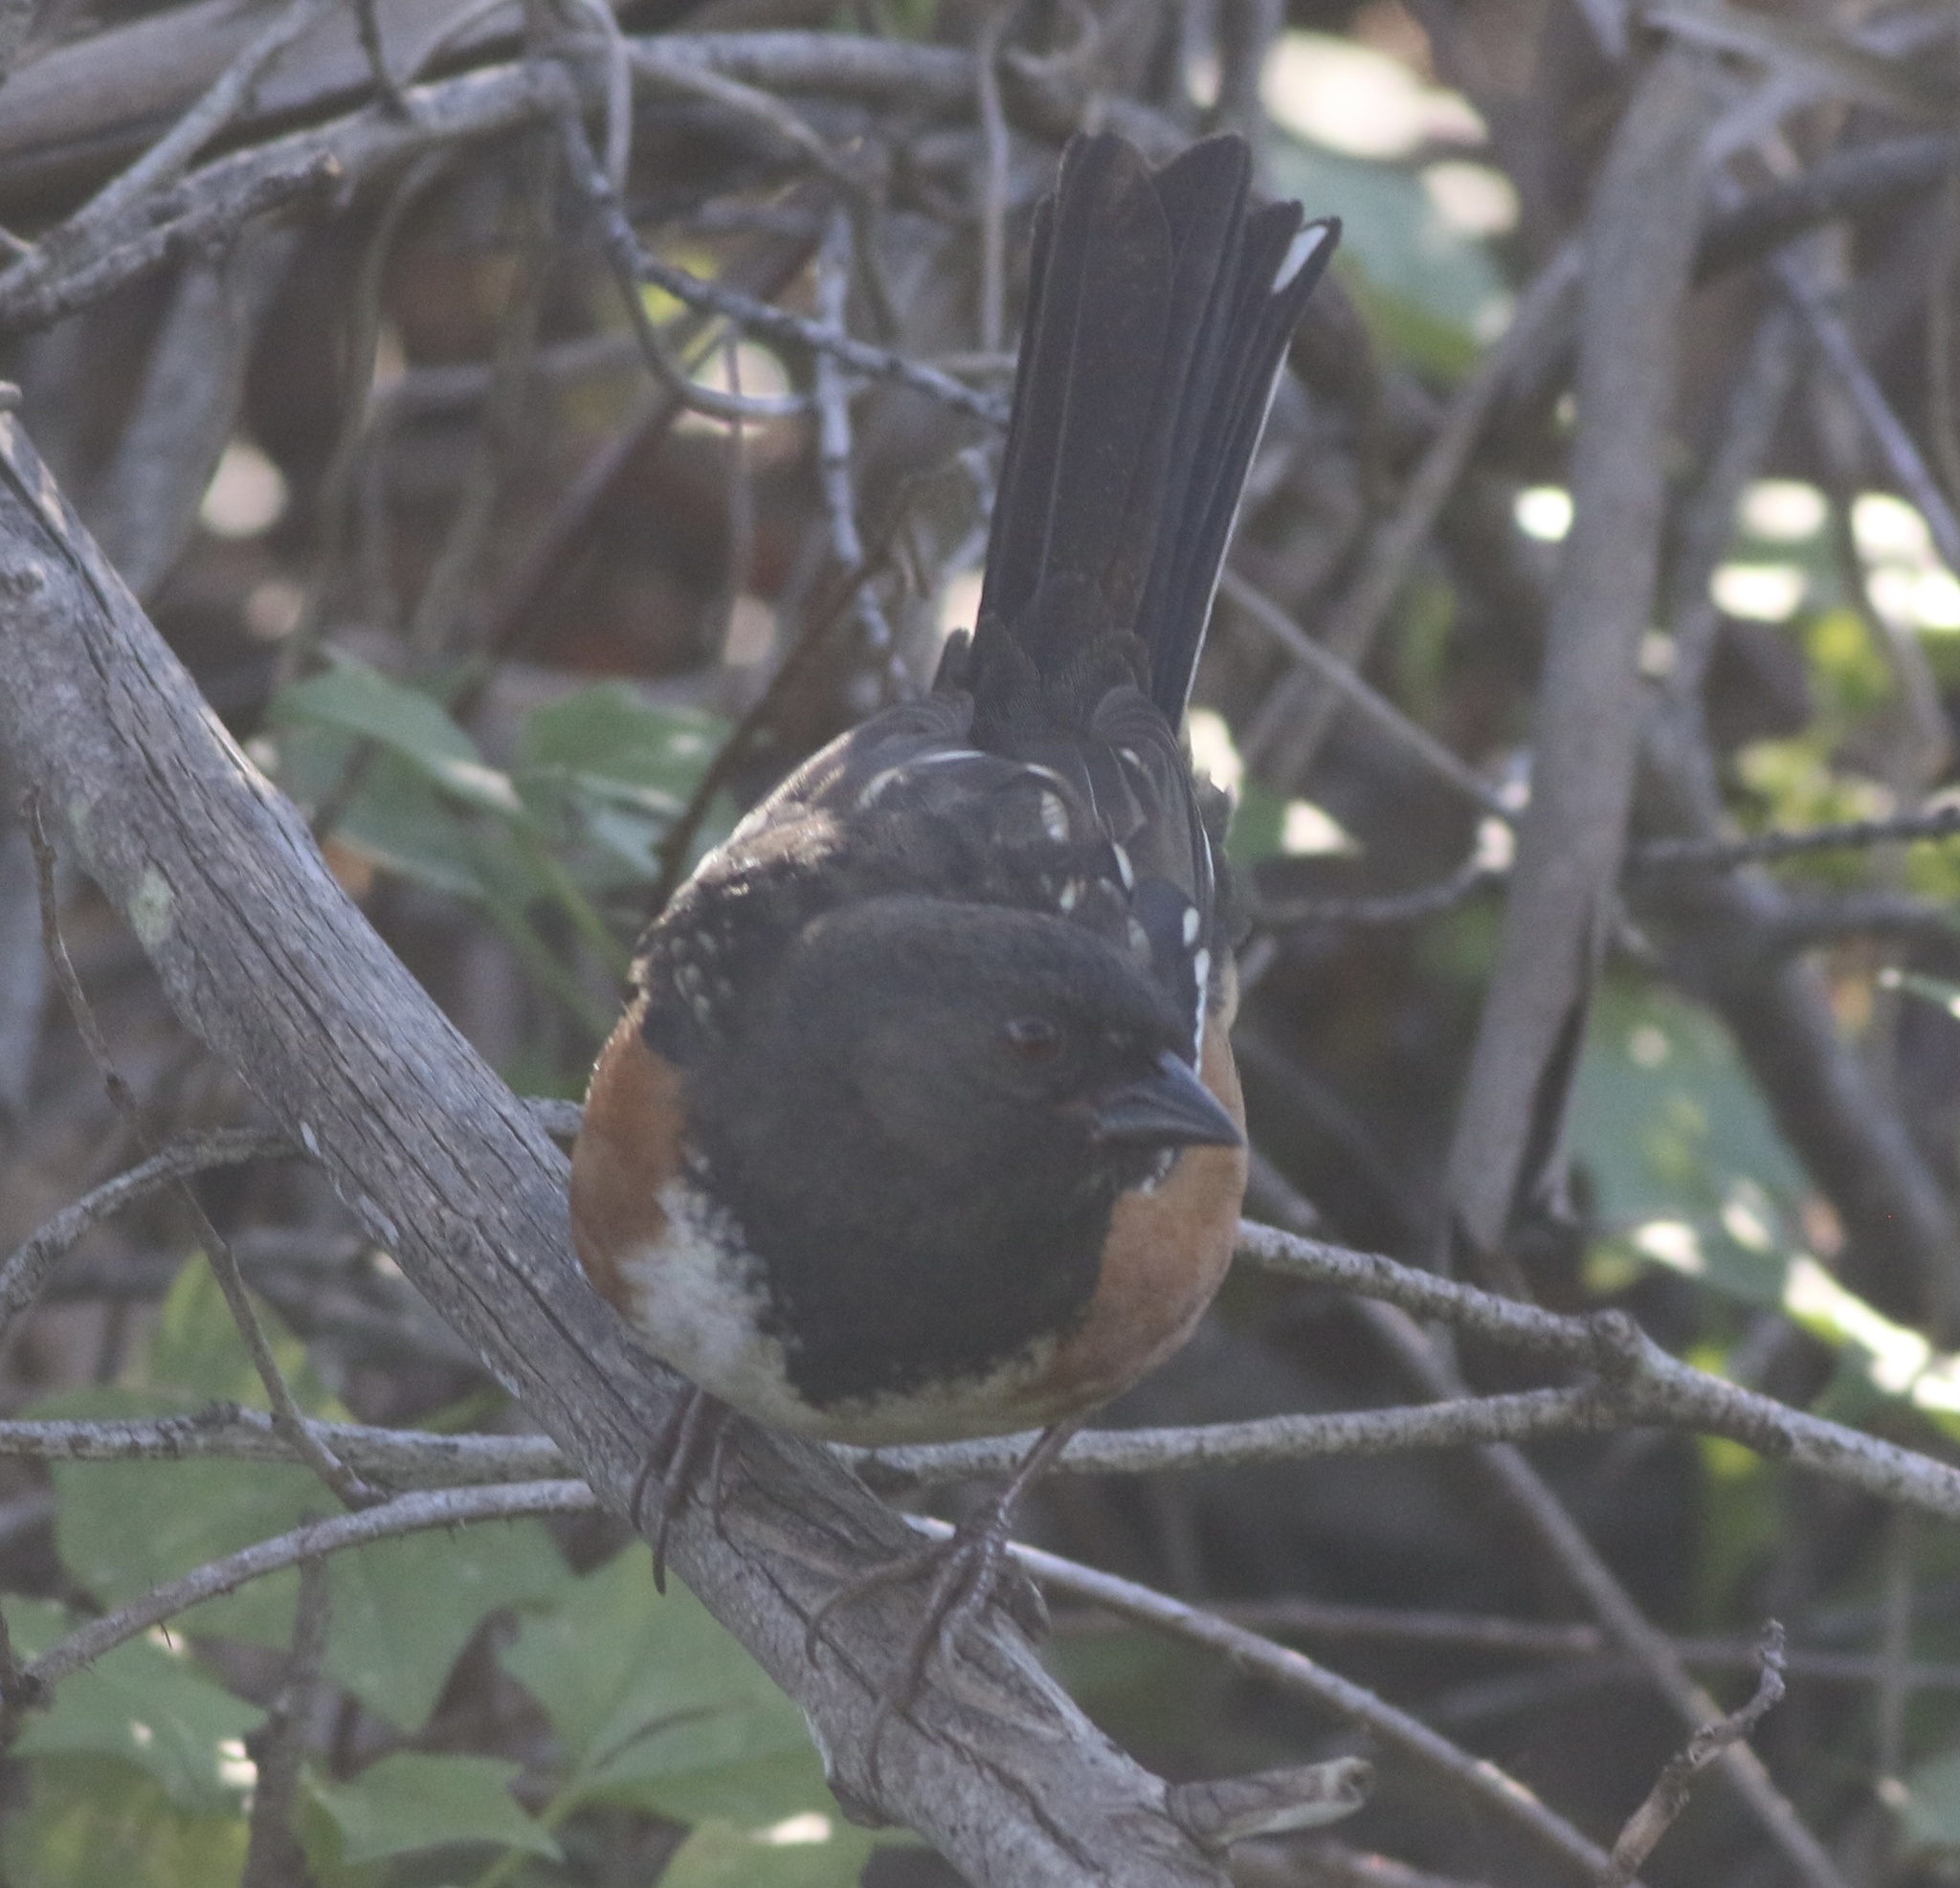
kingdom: Animalia
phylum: Chordata
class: Aves
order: Passeriformes
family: Passerellidae
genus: Pipilo
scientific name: Pipilo maculatus
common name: Spotted towhee
